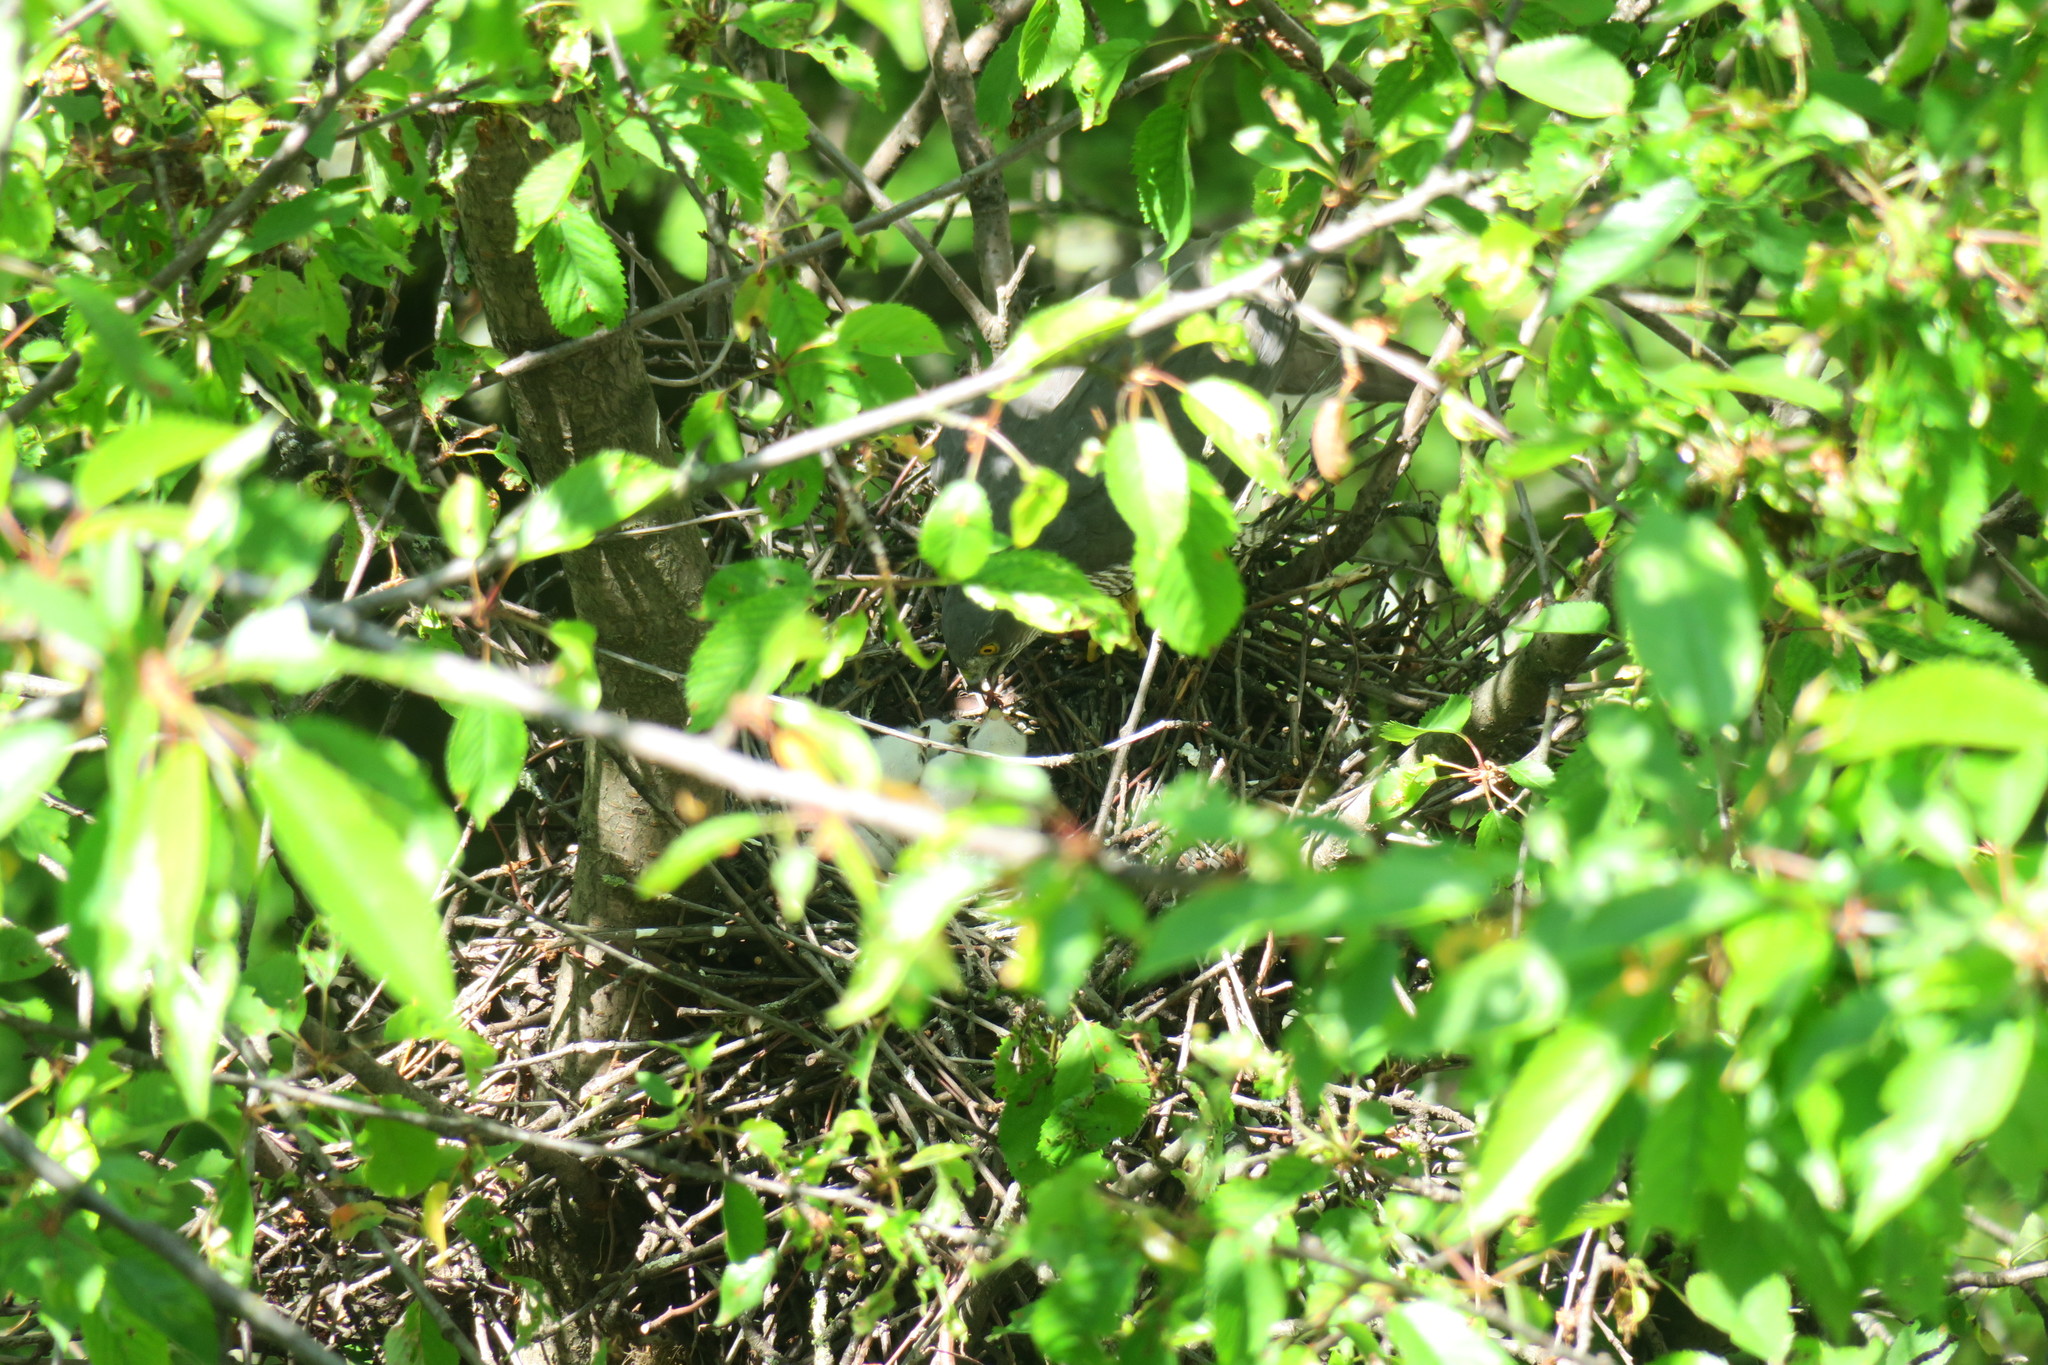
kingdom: Animalia
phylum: Chordata
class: Aves
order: Accipitriformes
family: Accipitridae
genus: Accipiter
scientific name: Accipiter nisus
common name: Eurasian sparrowhawk
